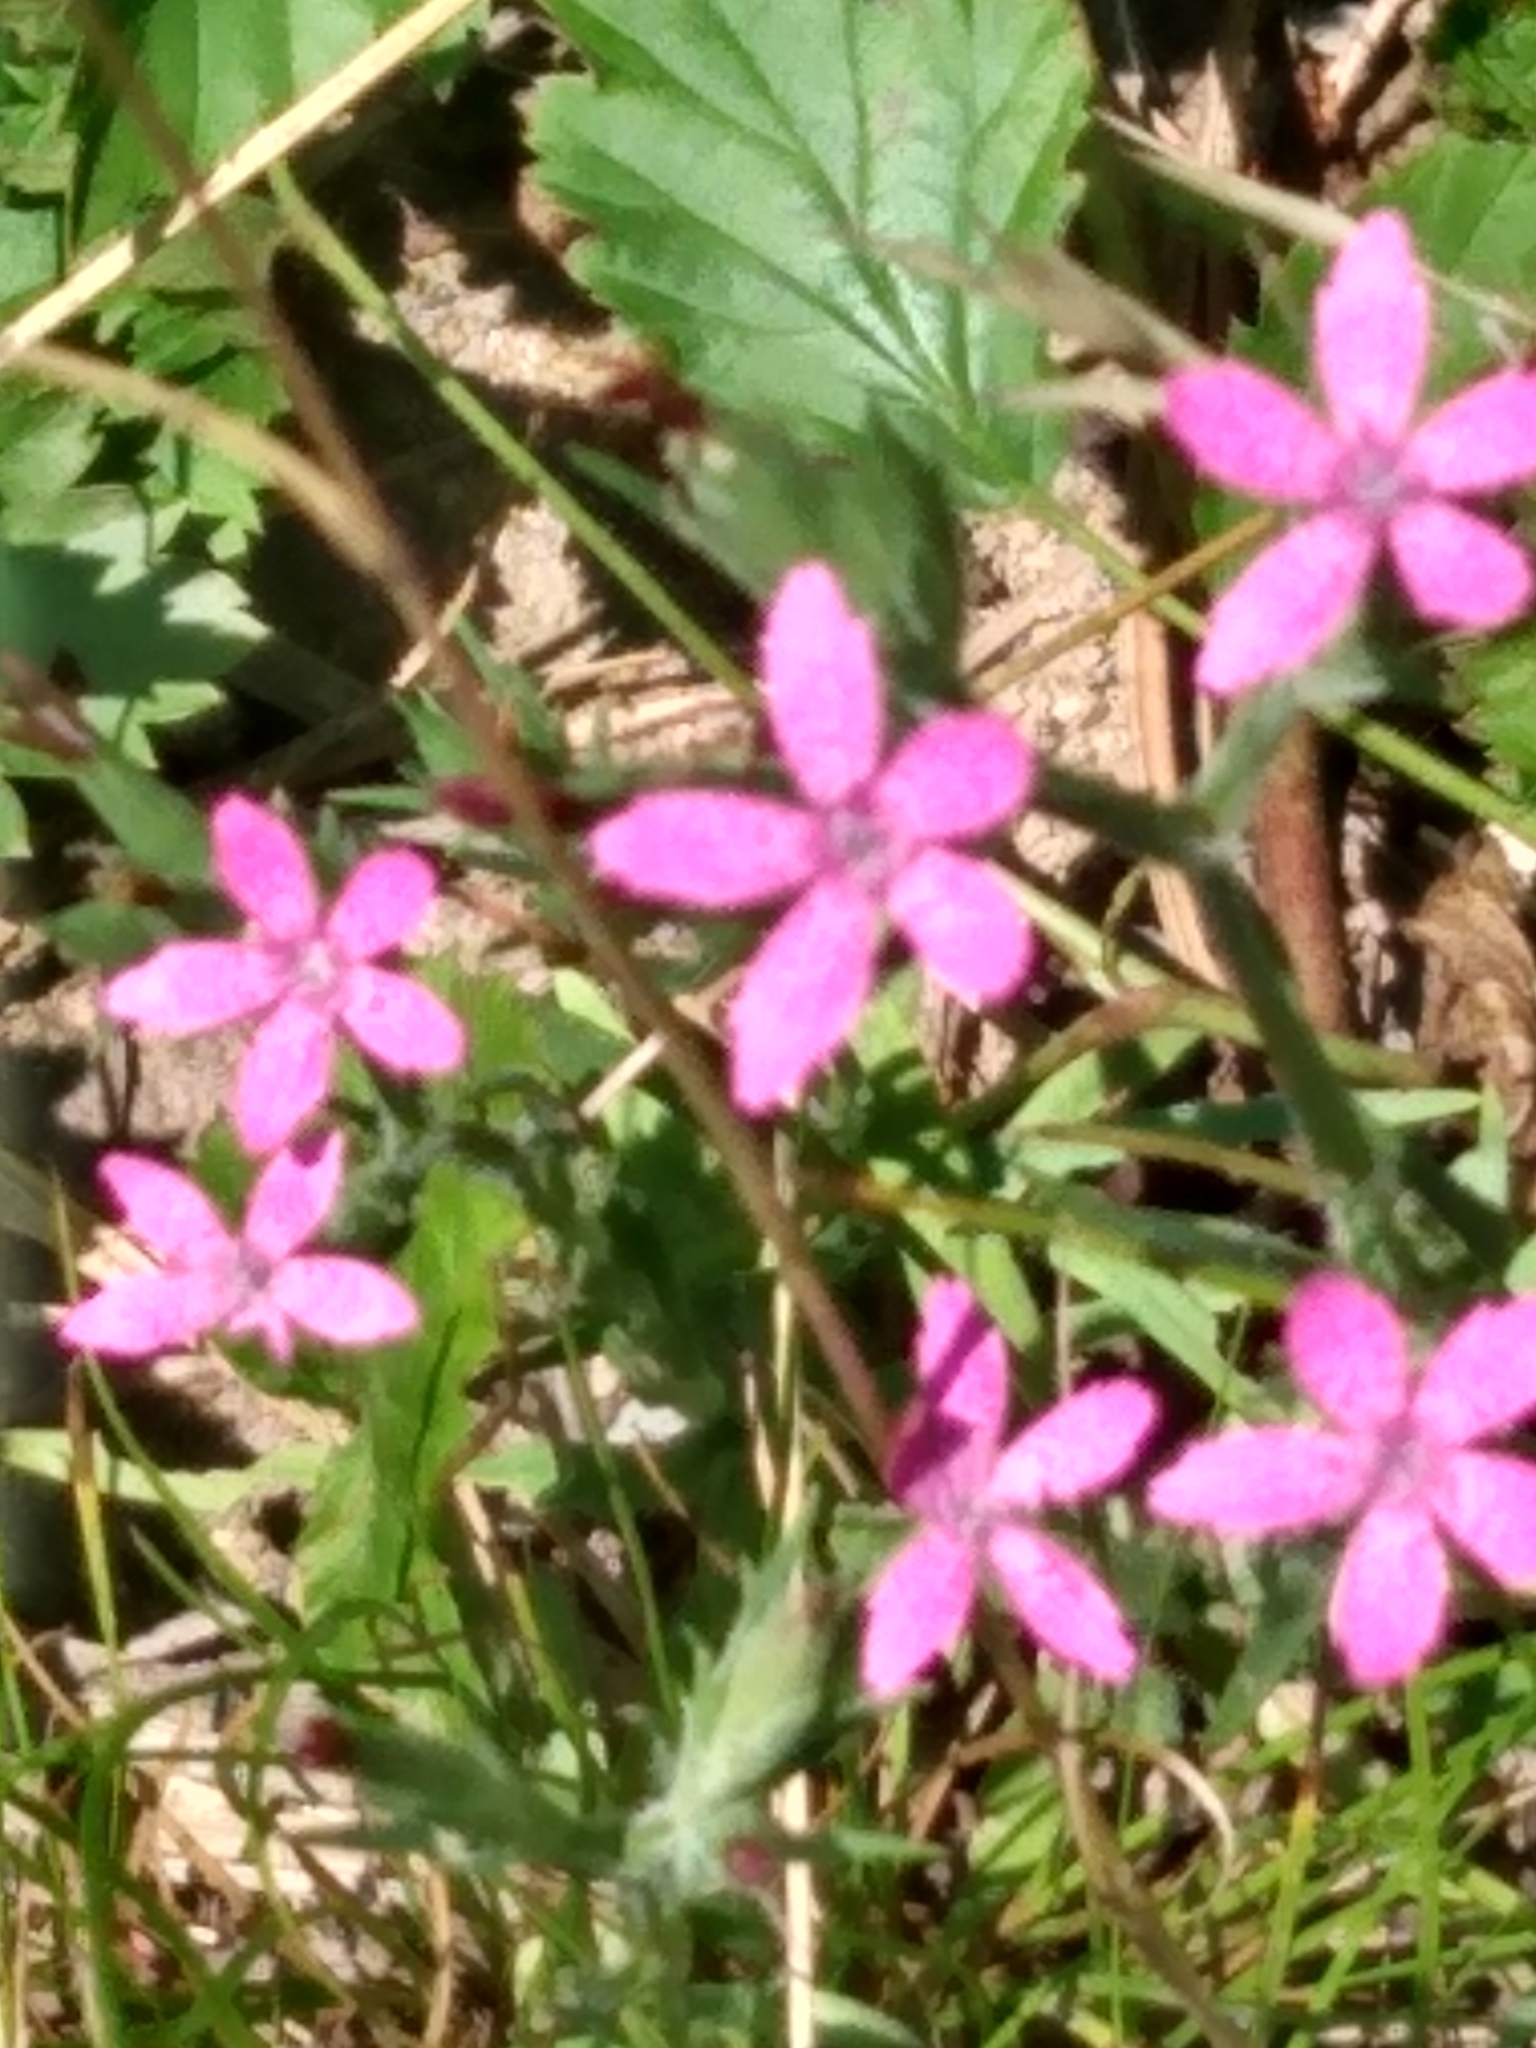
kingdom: Plantae
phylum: Tracheophyta
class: Magnoliopsida
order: Caryophyllales
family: Caryophyllaceae
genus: Dianthus
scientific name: Dianthus armeria
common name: Deptford pink
